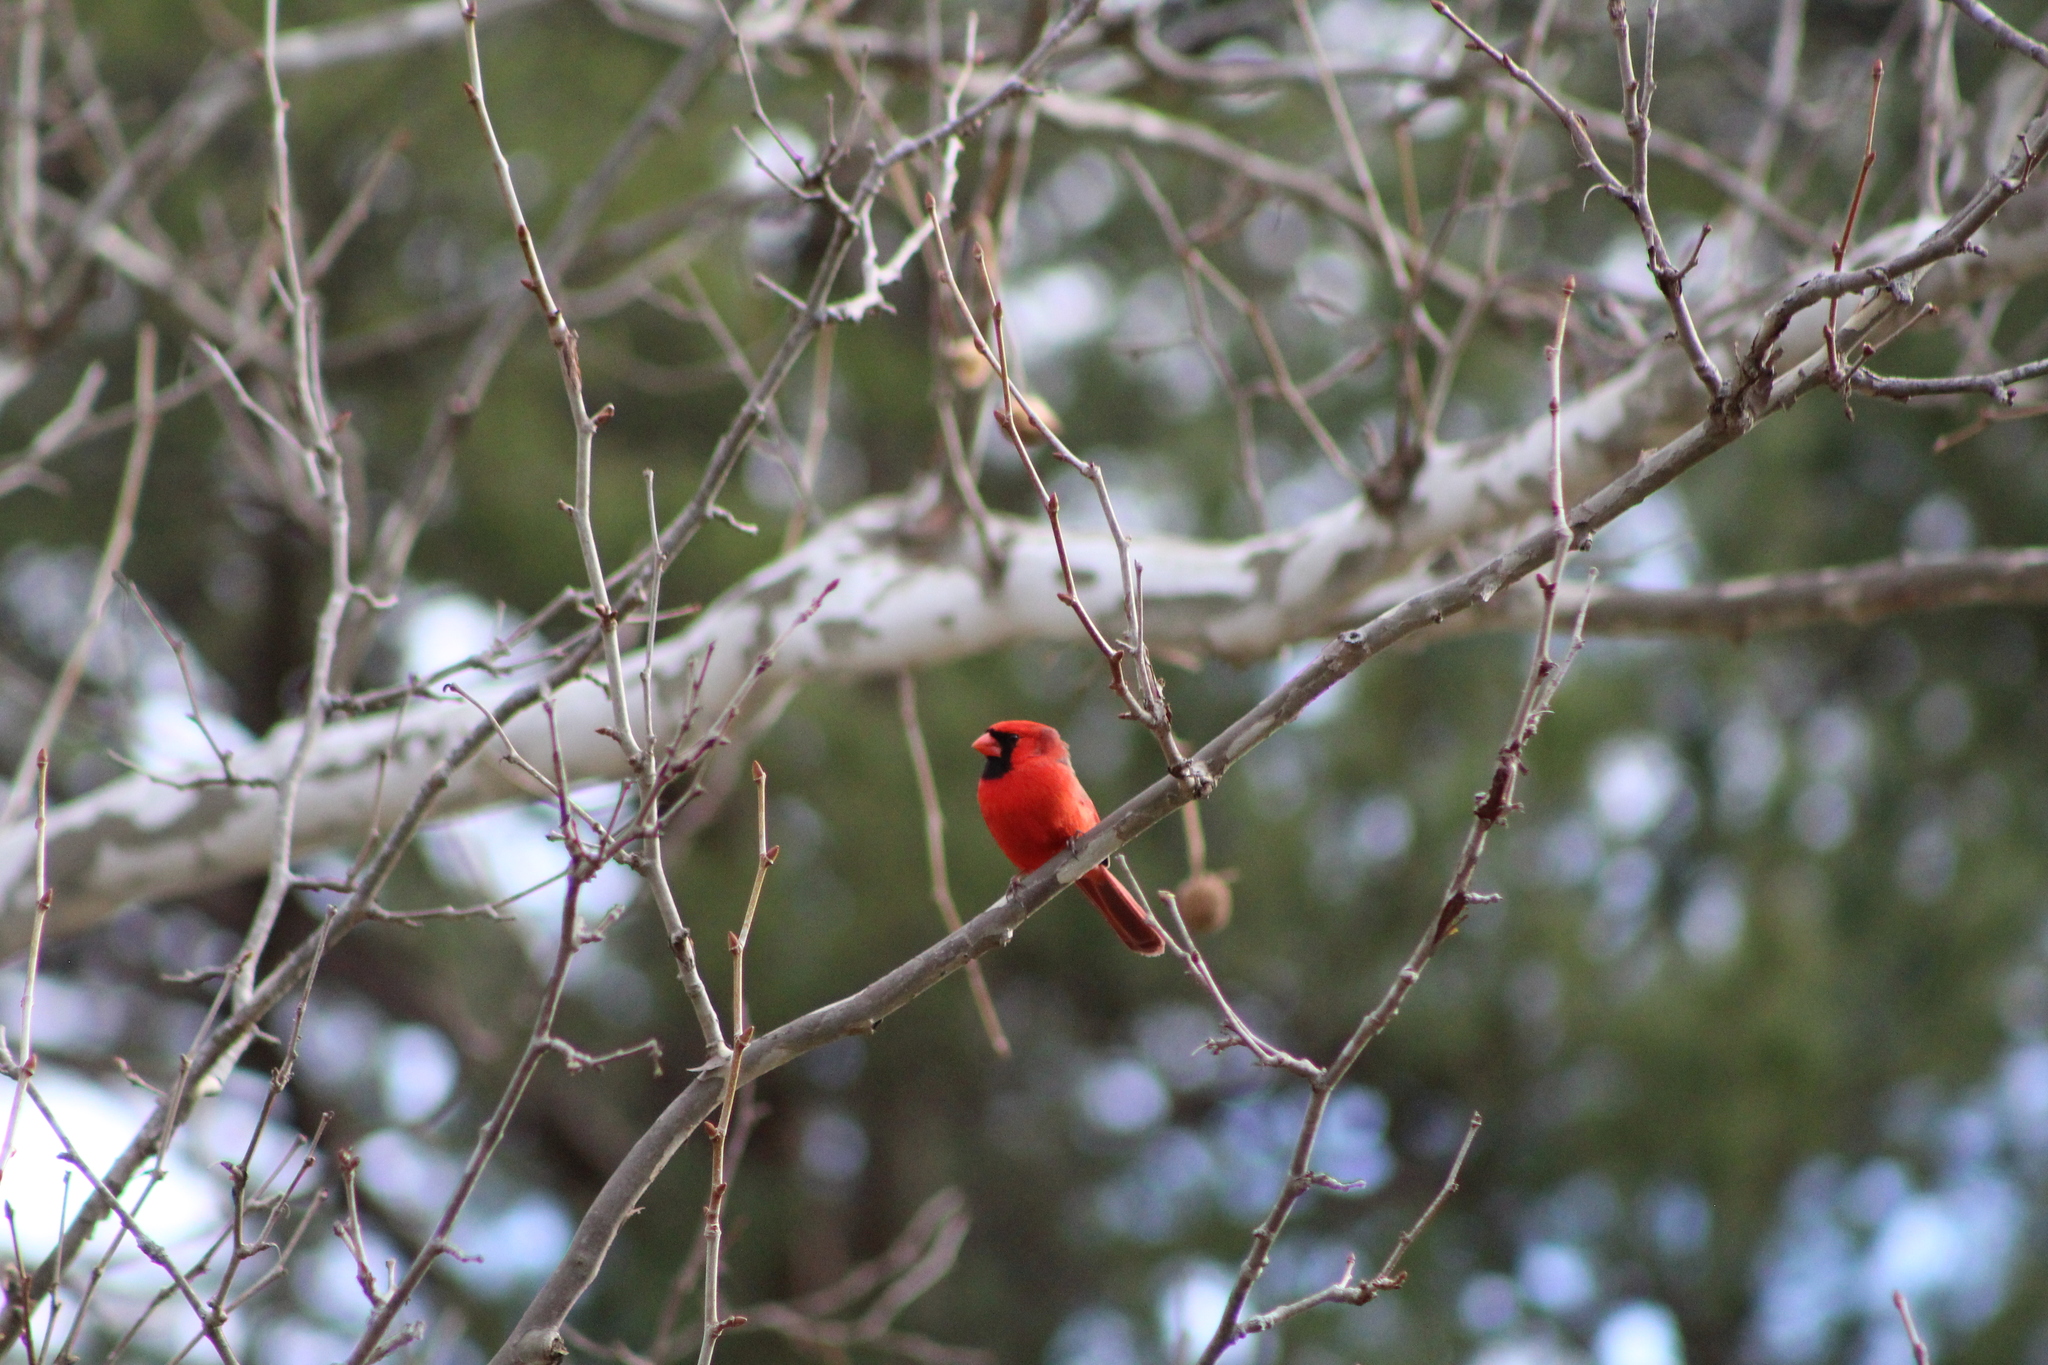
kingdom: Animalia
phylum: Chordata
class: Aves
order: Passeriformes
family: Cardinalidae
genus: Cardinalis
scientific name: Cardinalis cardinalis
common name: Northern cardinal
